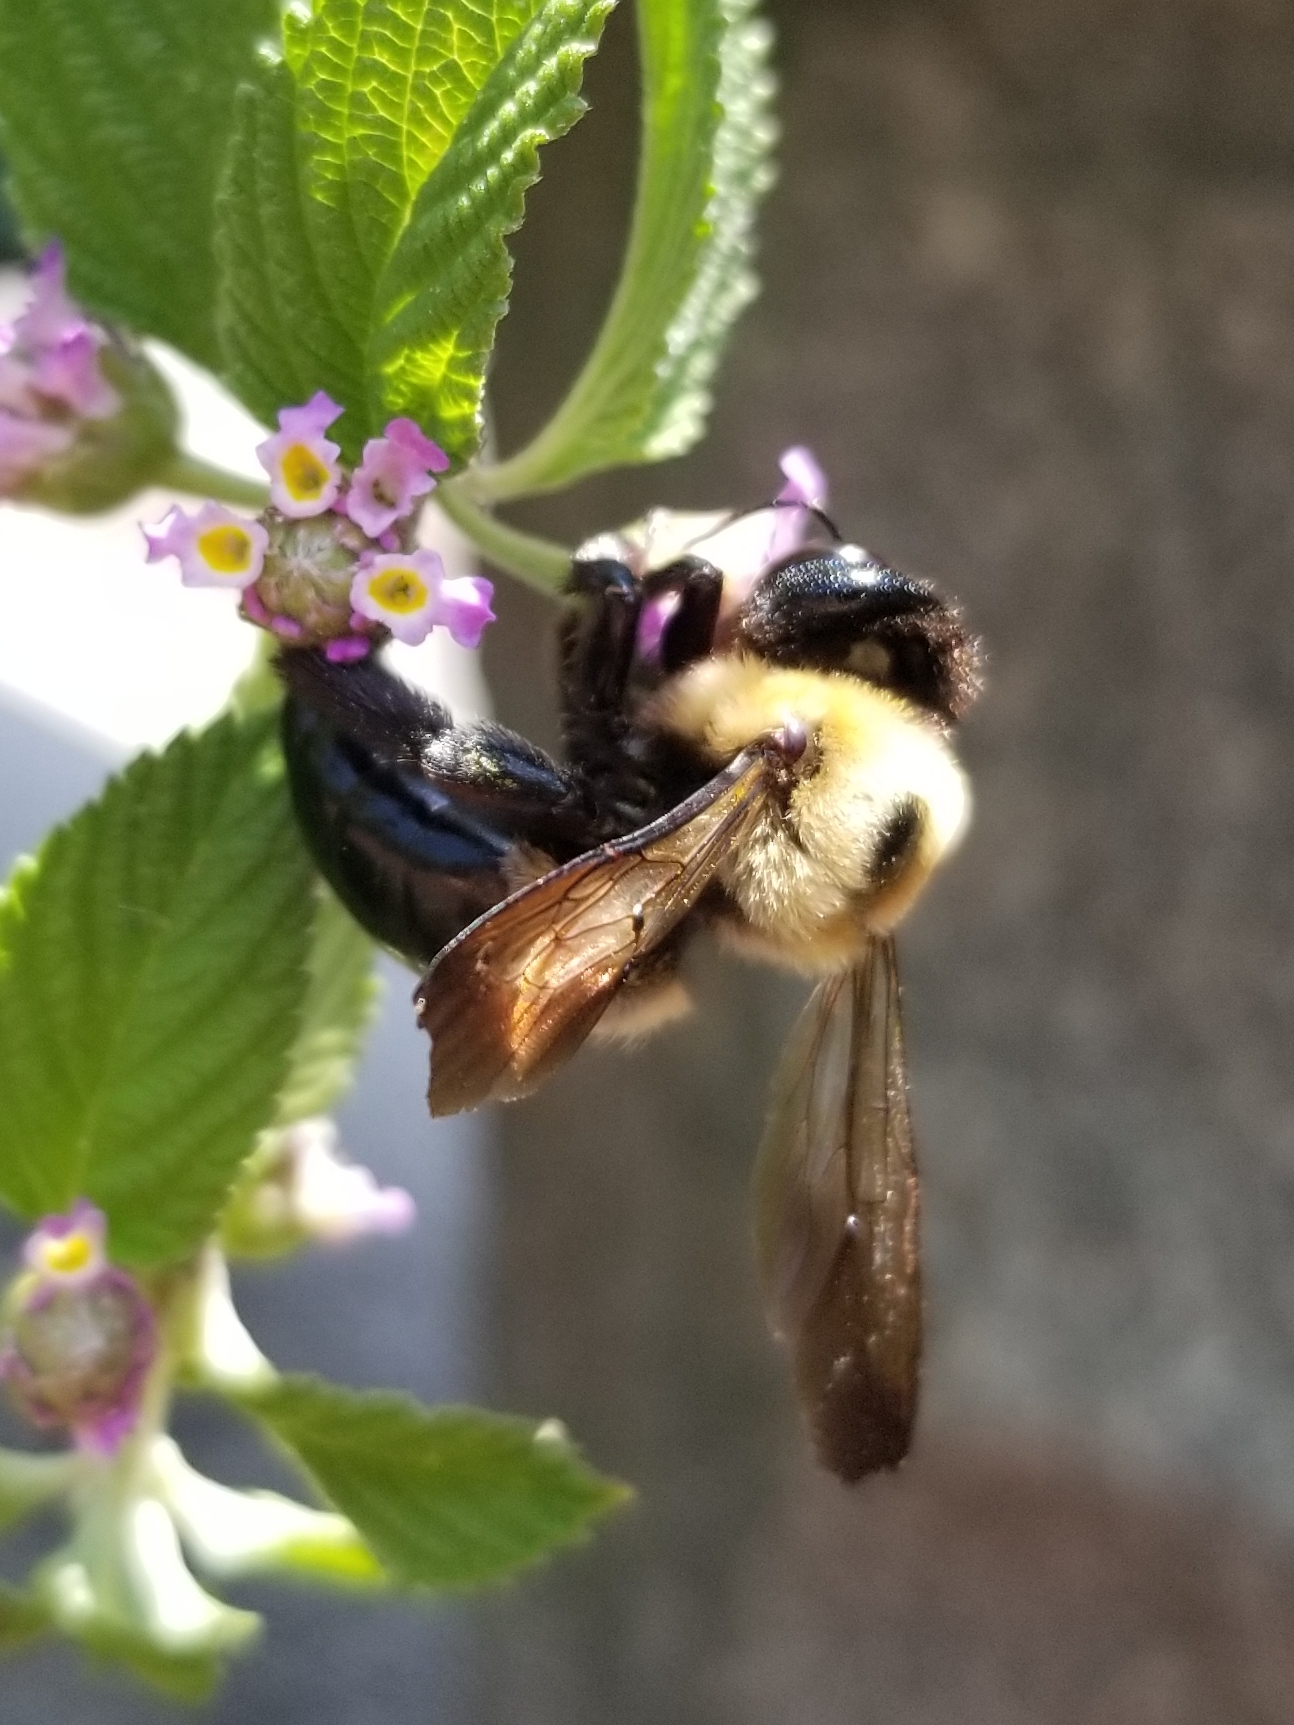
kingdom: Animalia
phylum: Arthropoda
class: Insecta
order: Hymenoptera
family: Apidae
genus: Xylocopa
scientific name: Xylocopa virginica
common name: Carpenter bee
